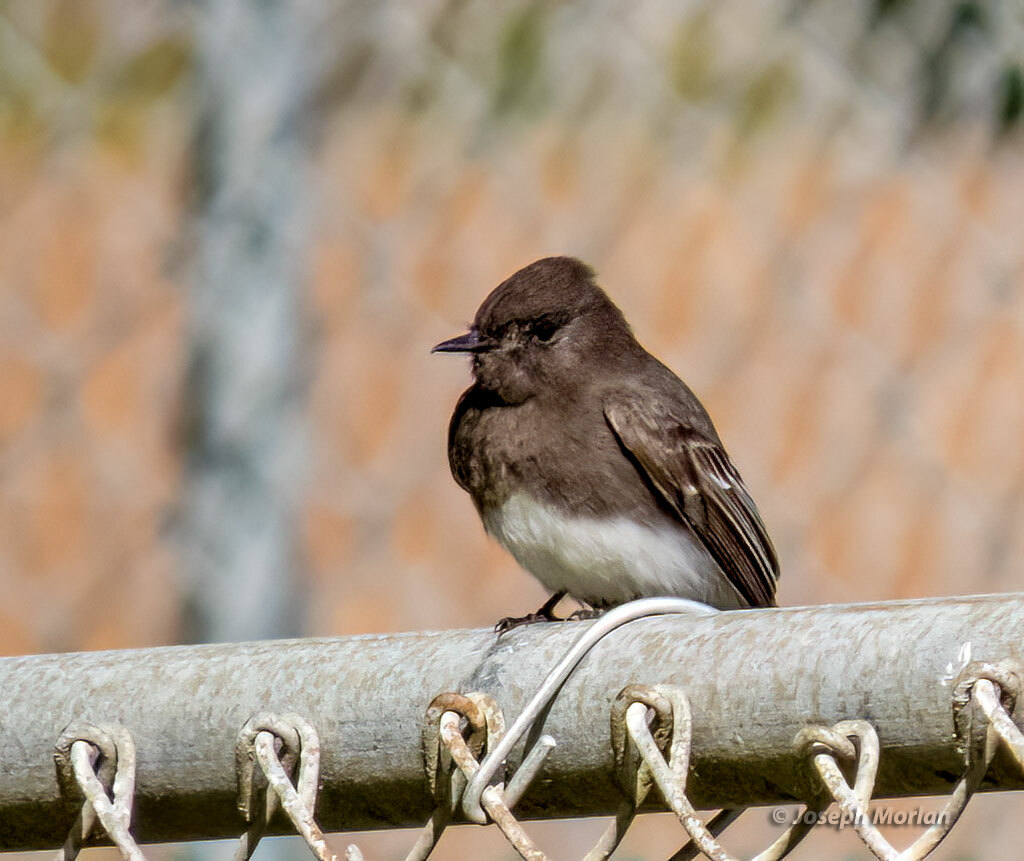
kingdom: Animalia
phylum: Chordata
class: Aves
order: Passeriformes
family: Tyrannidae
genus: Sayornis
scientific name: Sayornis nigricans
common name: Black phoebe
